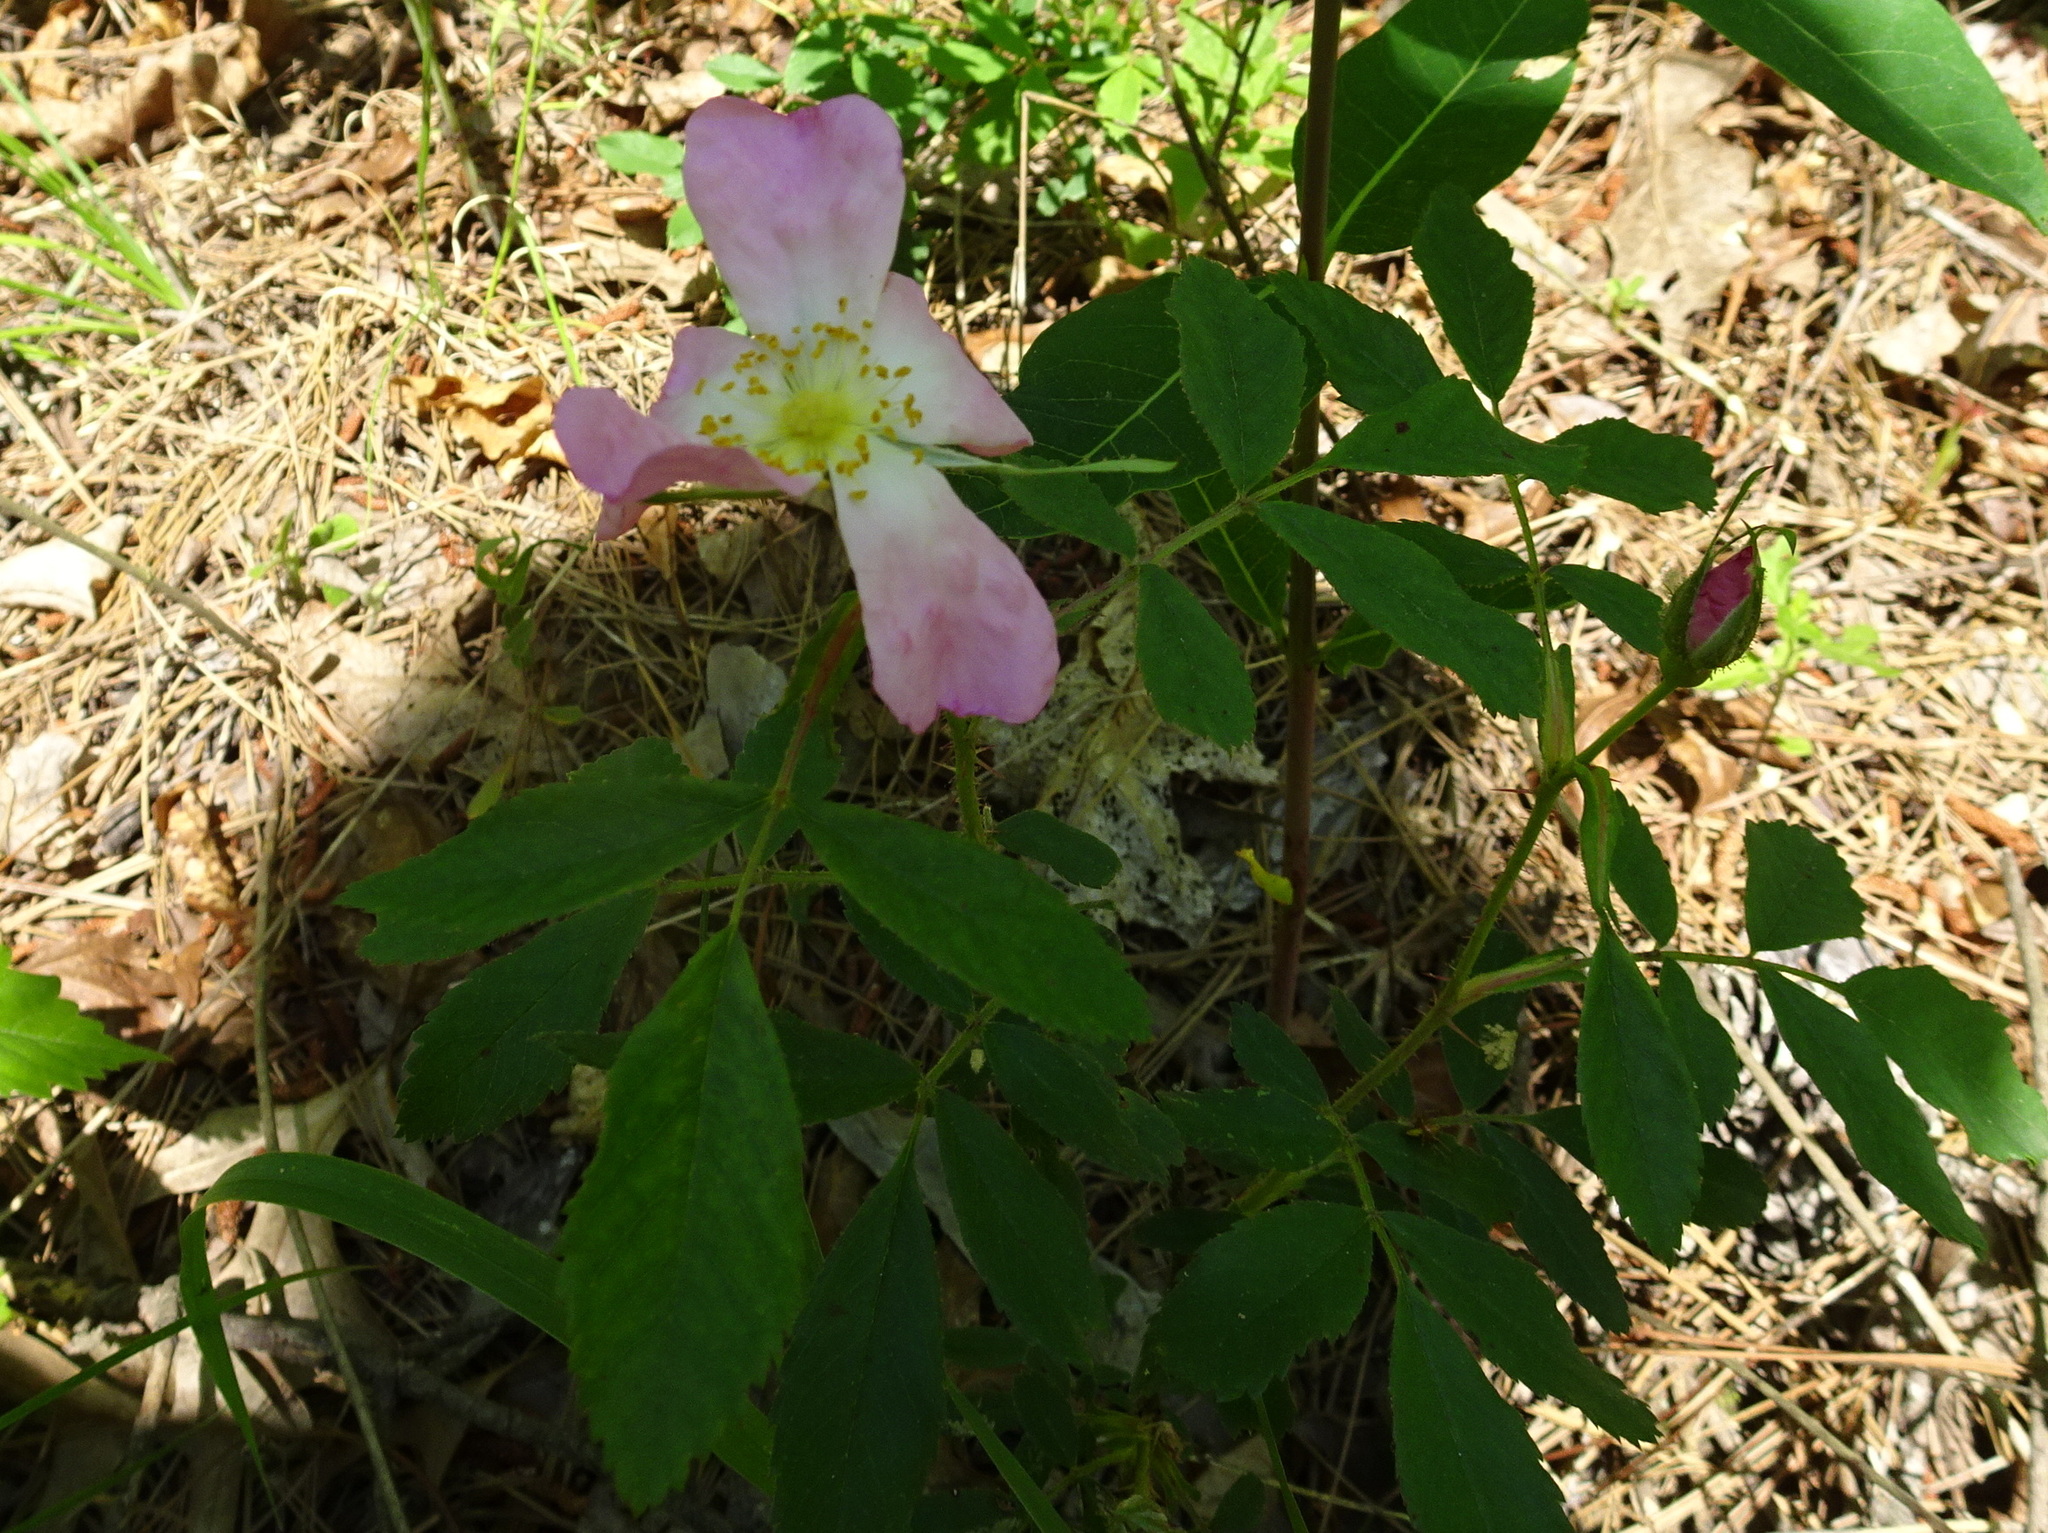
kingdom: Plantae
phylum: Tracheophyta
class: Magnoliopsida
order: Rosales
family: Rosaceae
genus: Rosa
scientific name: Rosa carolina
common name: Pasture rose
